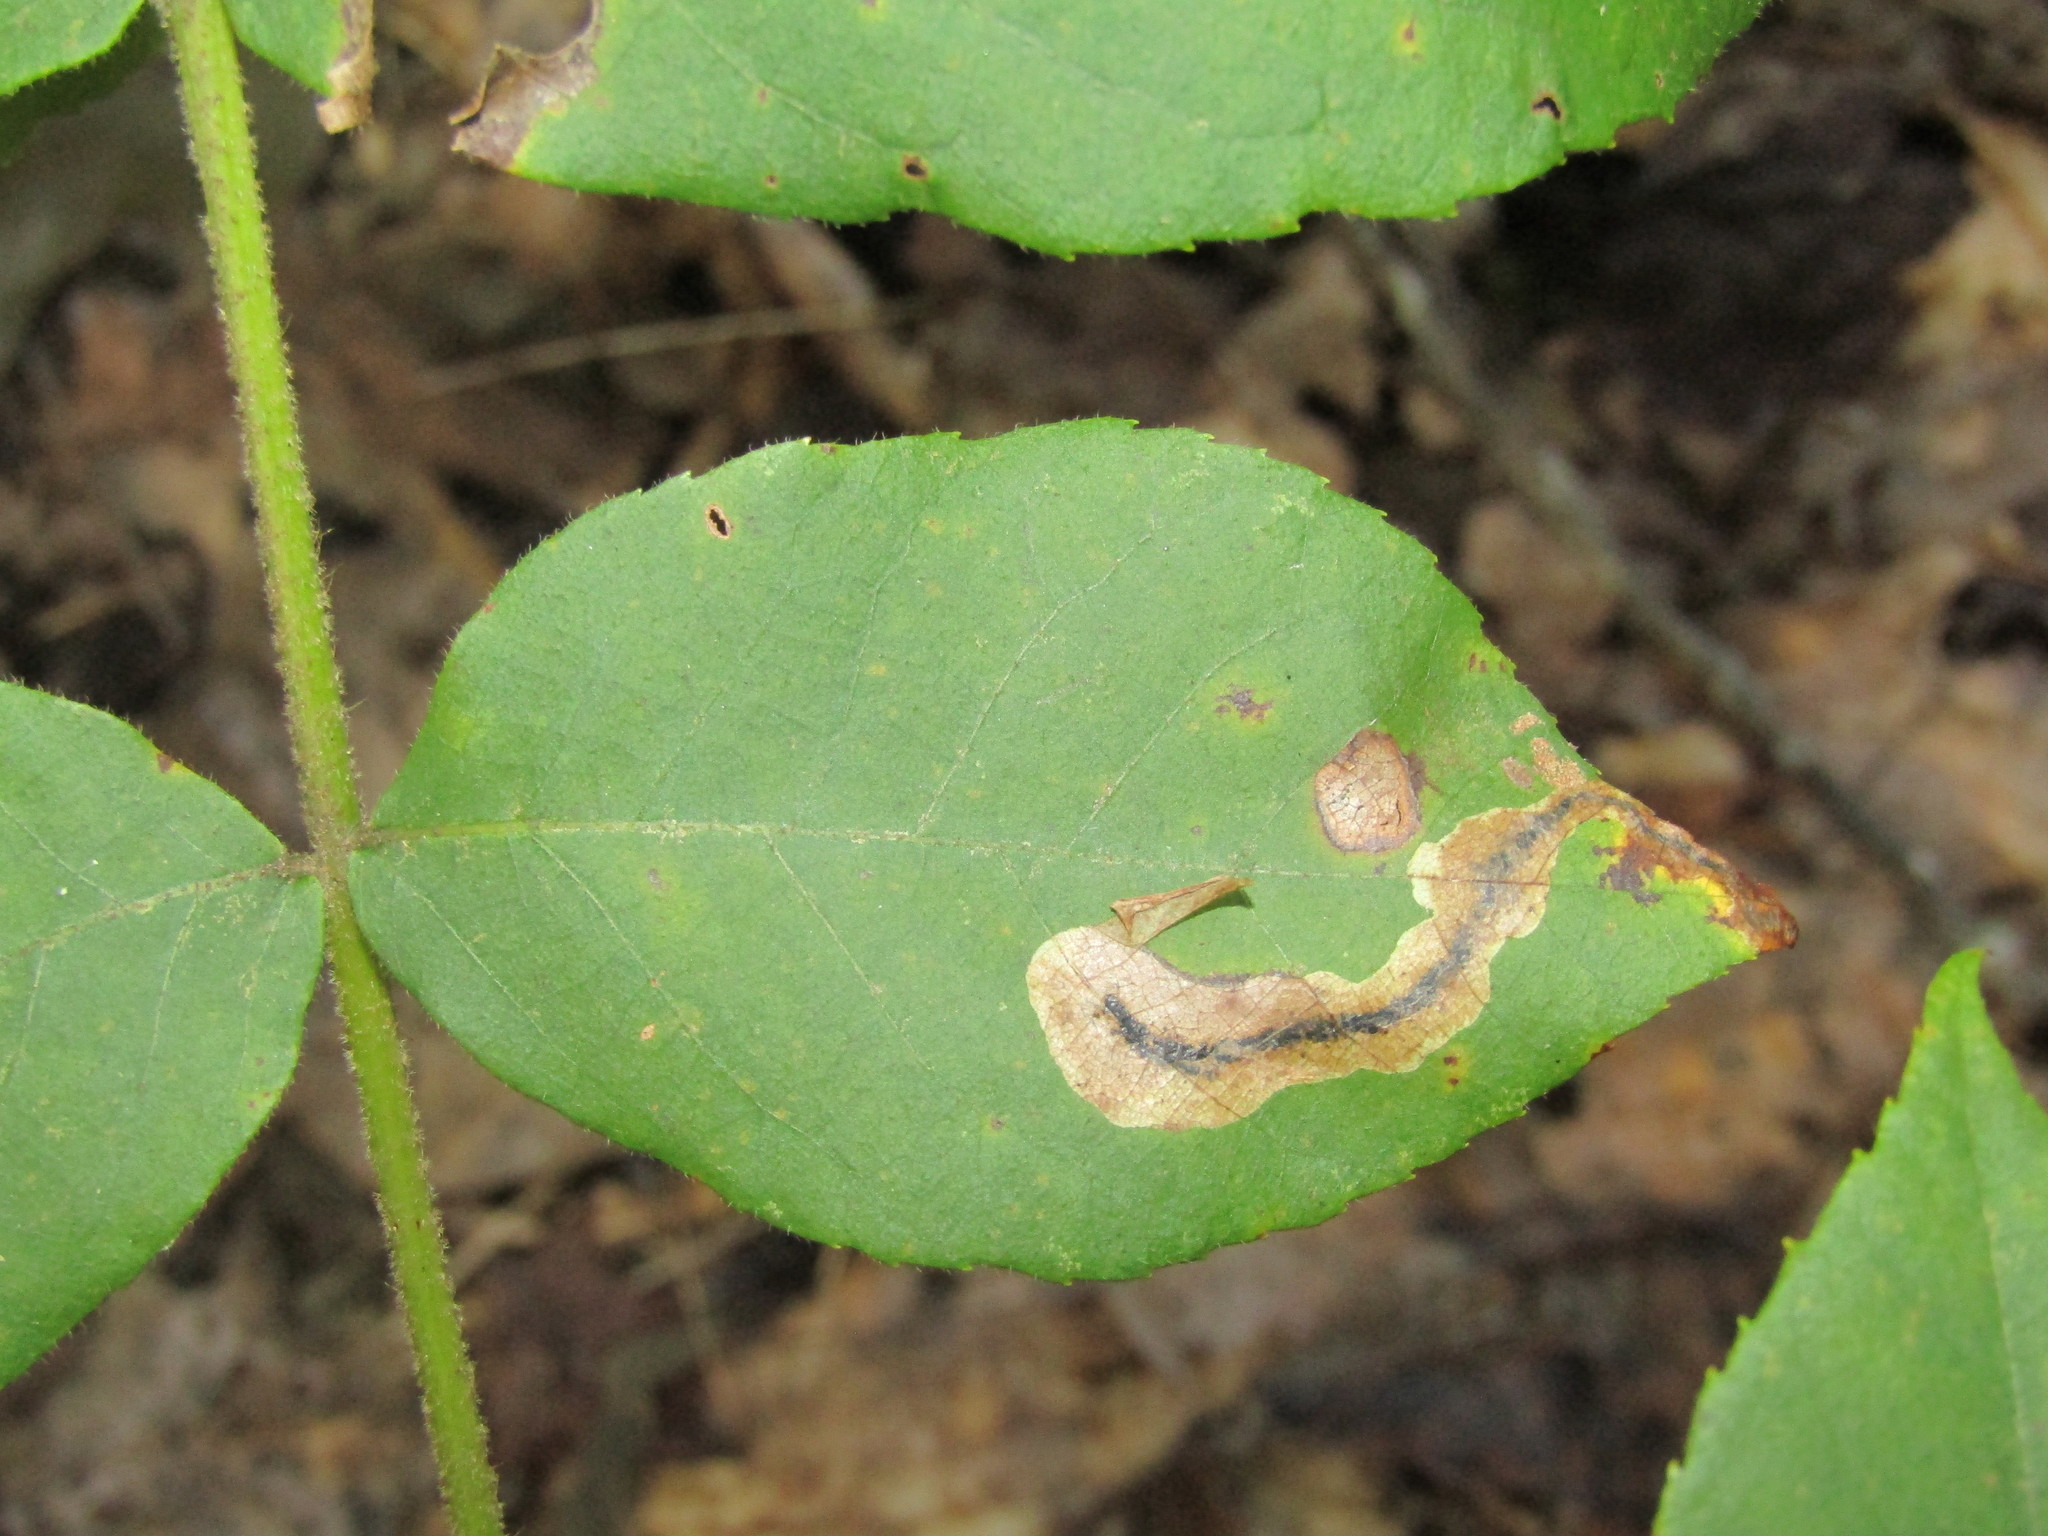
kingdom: Animalia
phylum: Arthropoda
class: Insecta
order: Lepidoptera
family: Gracillariidae
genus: Cameraria
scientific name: Cameraria caryaefoliella
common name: Pecan leafminer moth
